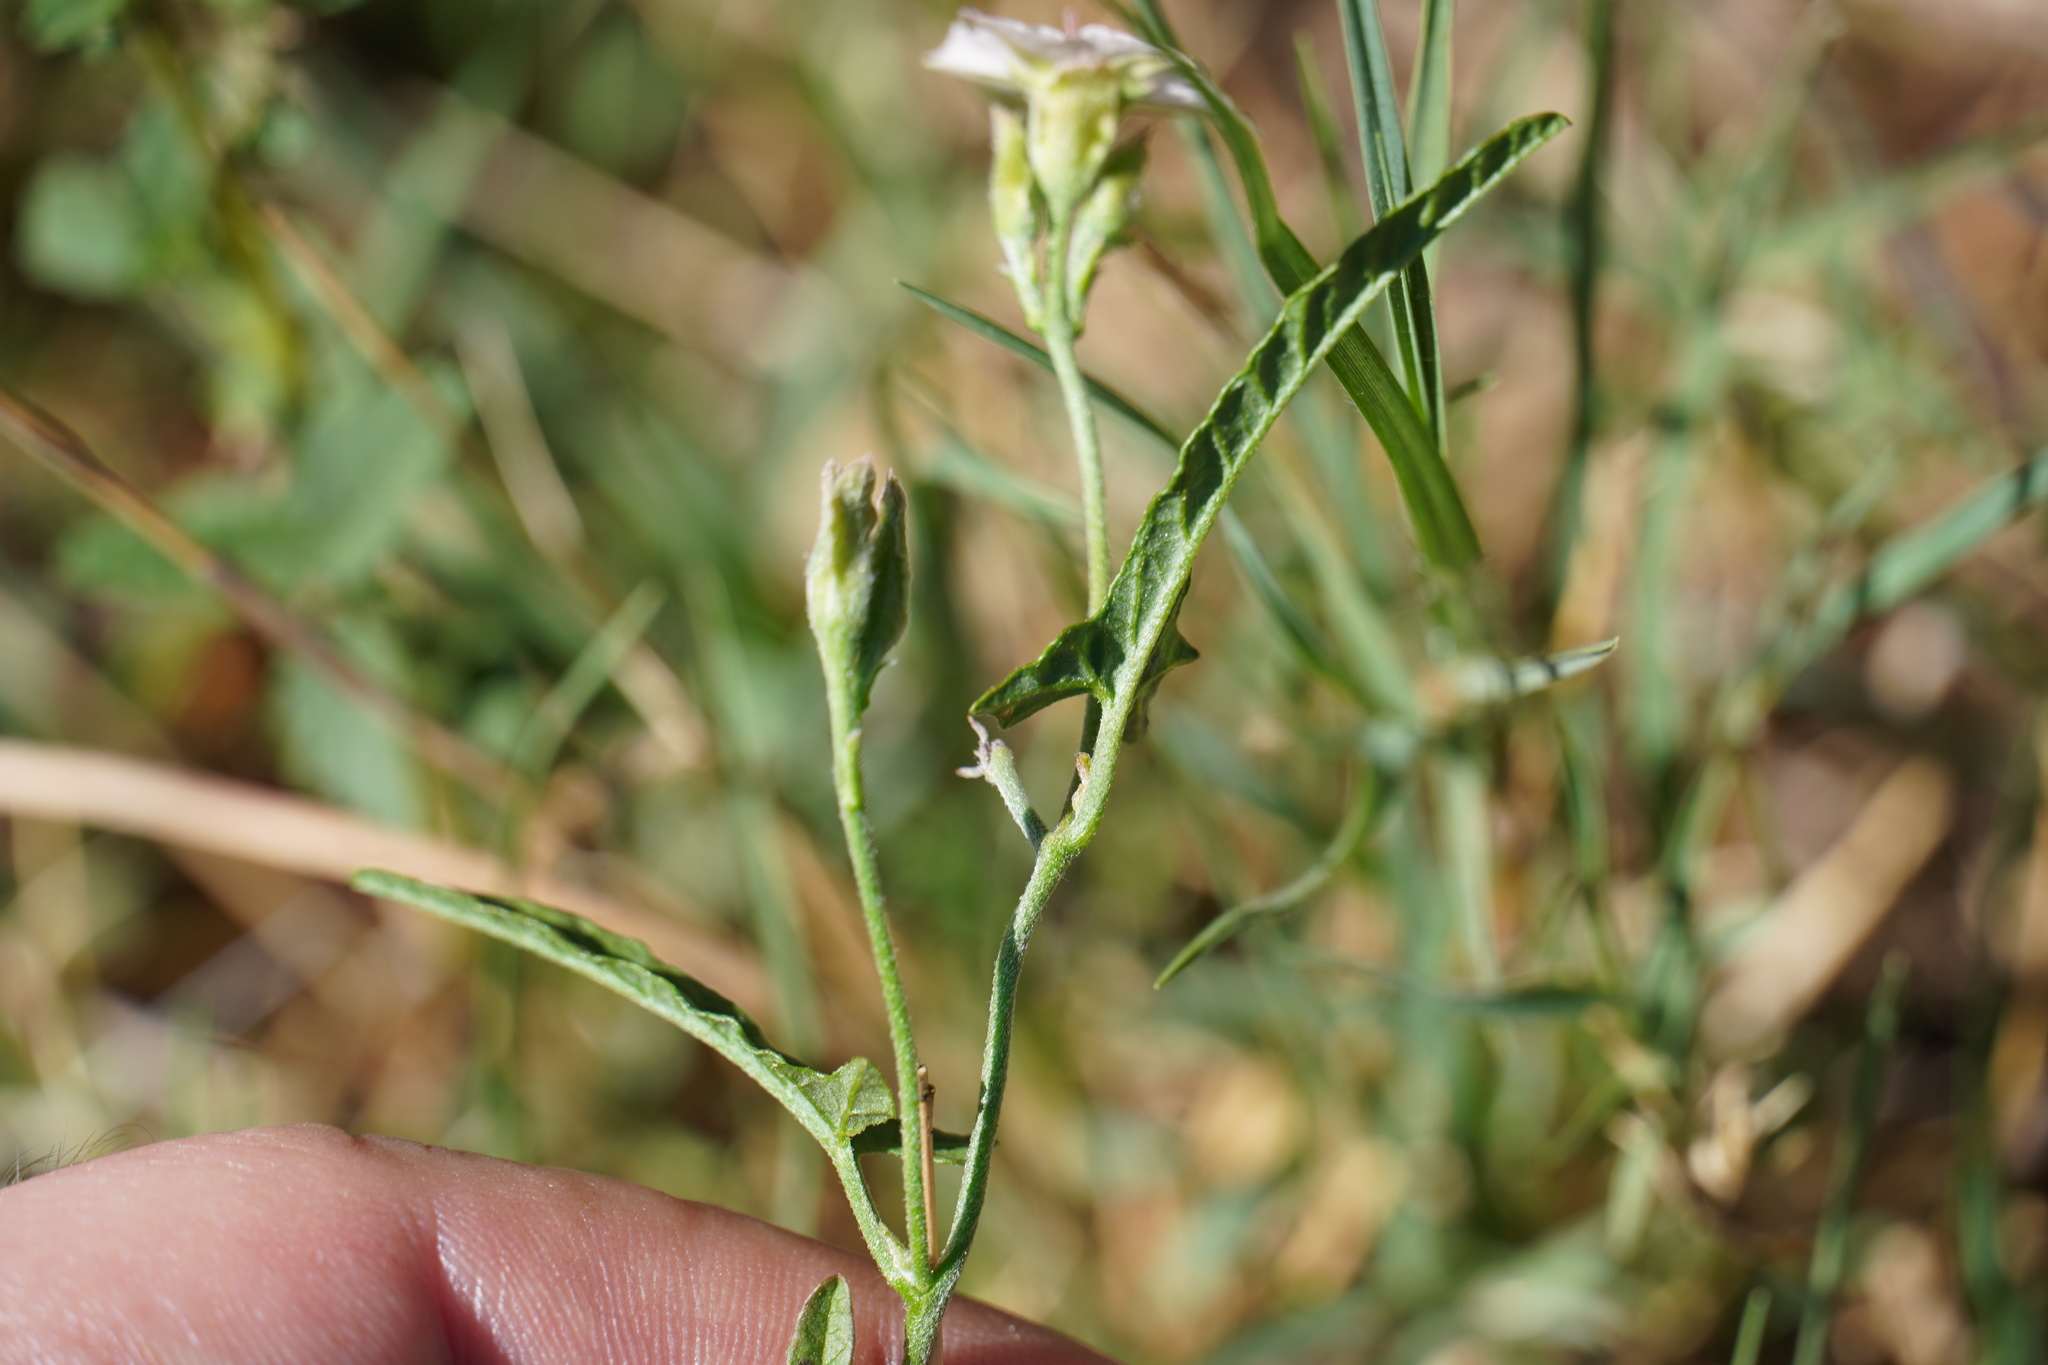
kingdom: Plantae
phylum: Tracheophyta
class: Magnoliopsida
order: Solanales
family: Convolvulaceae
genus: Convolvulus
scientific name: Convolvulus sagittatus
